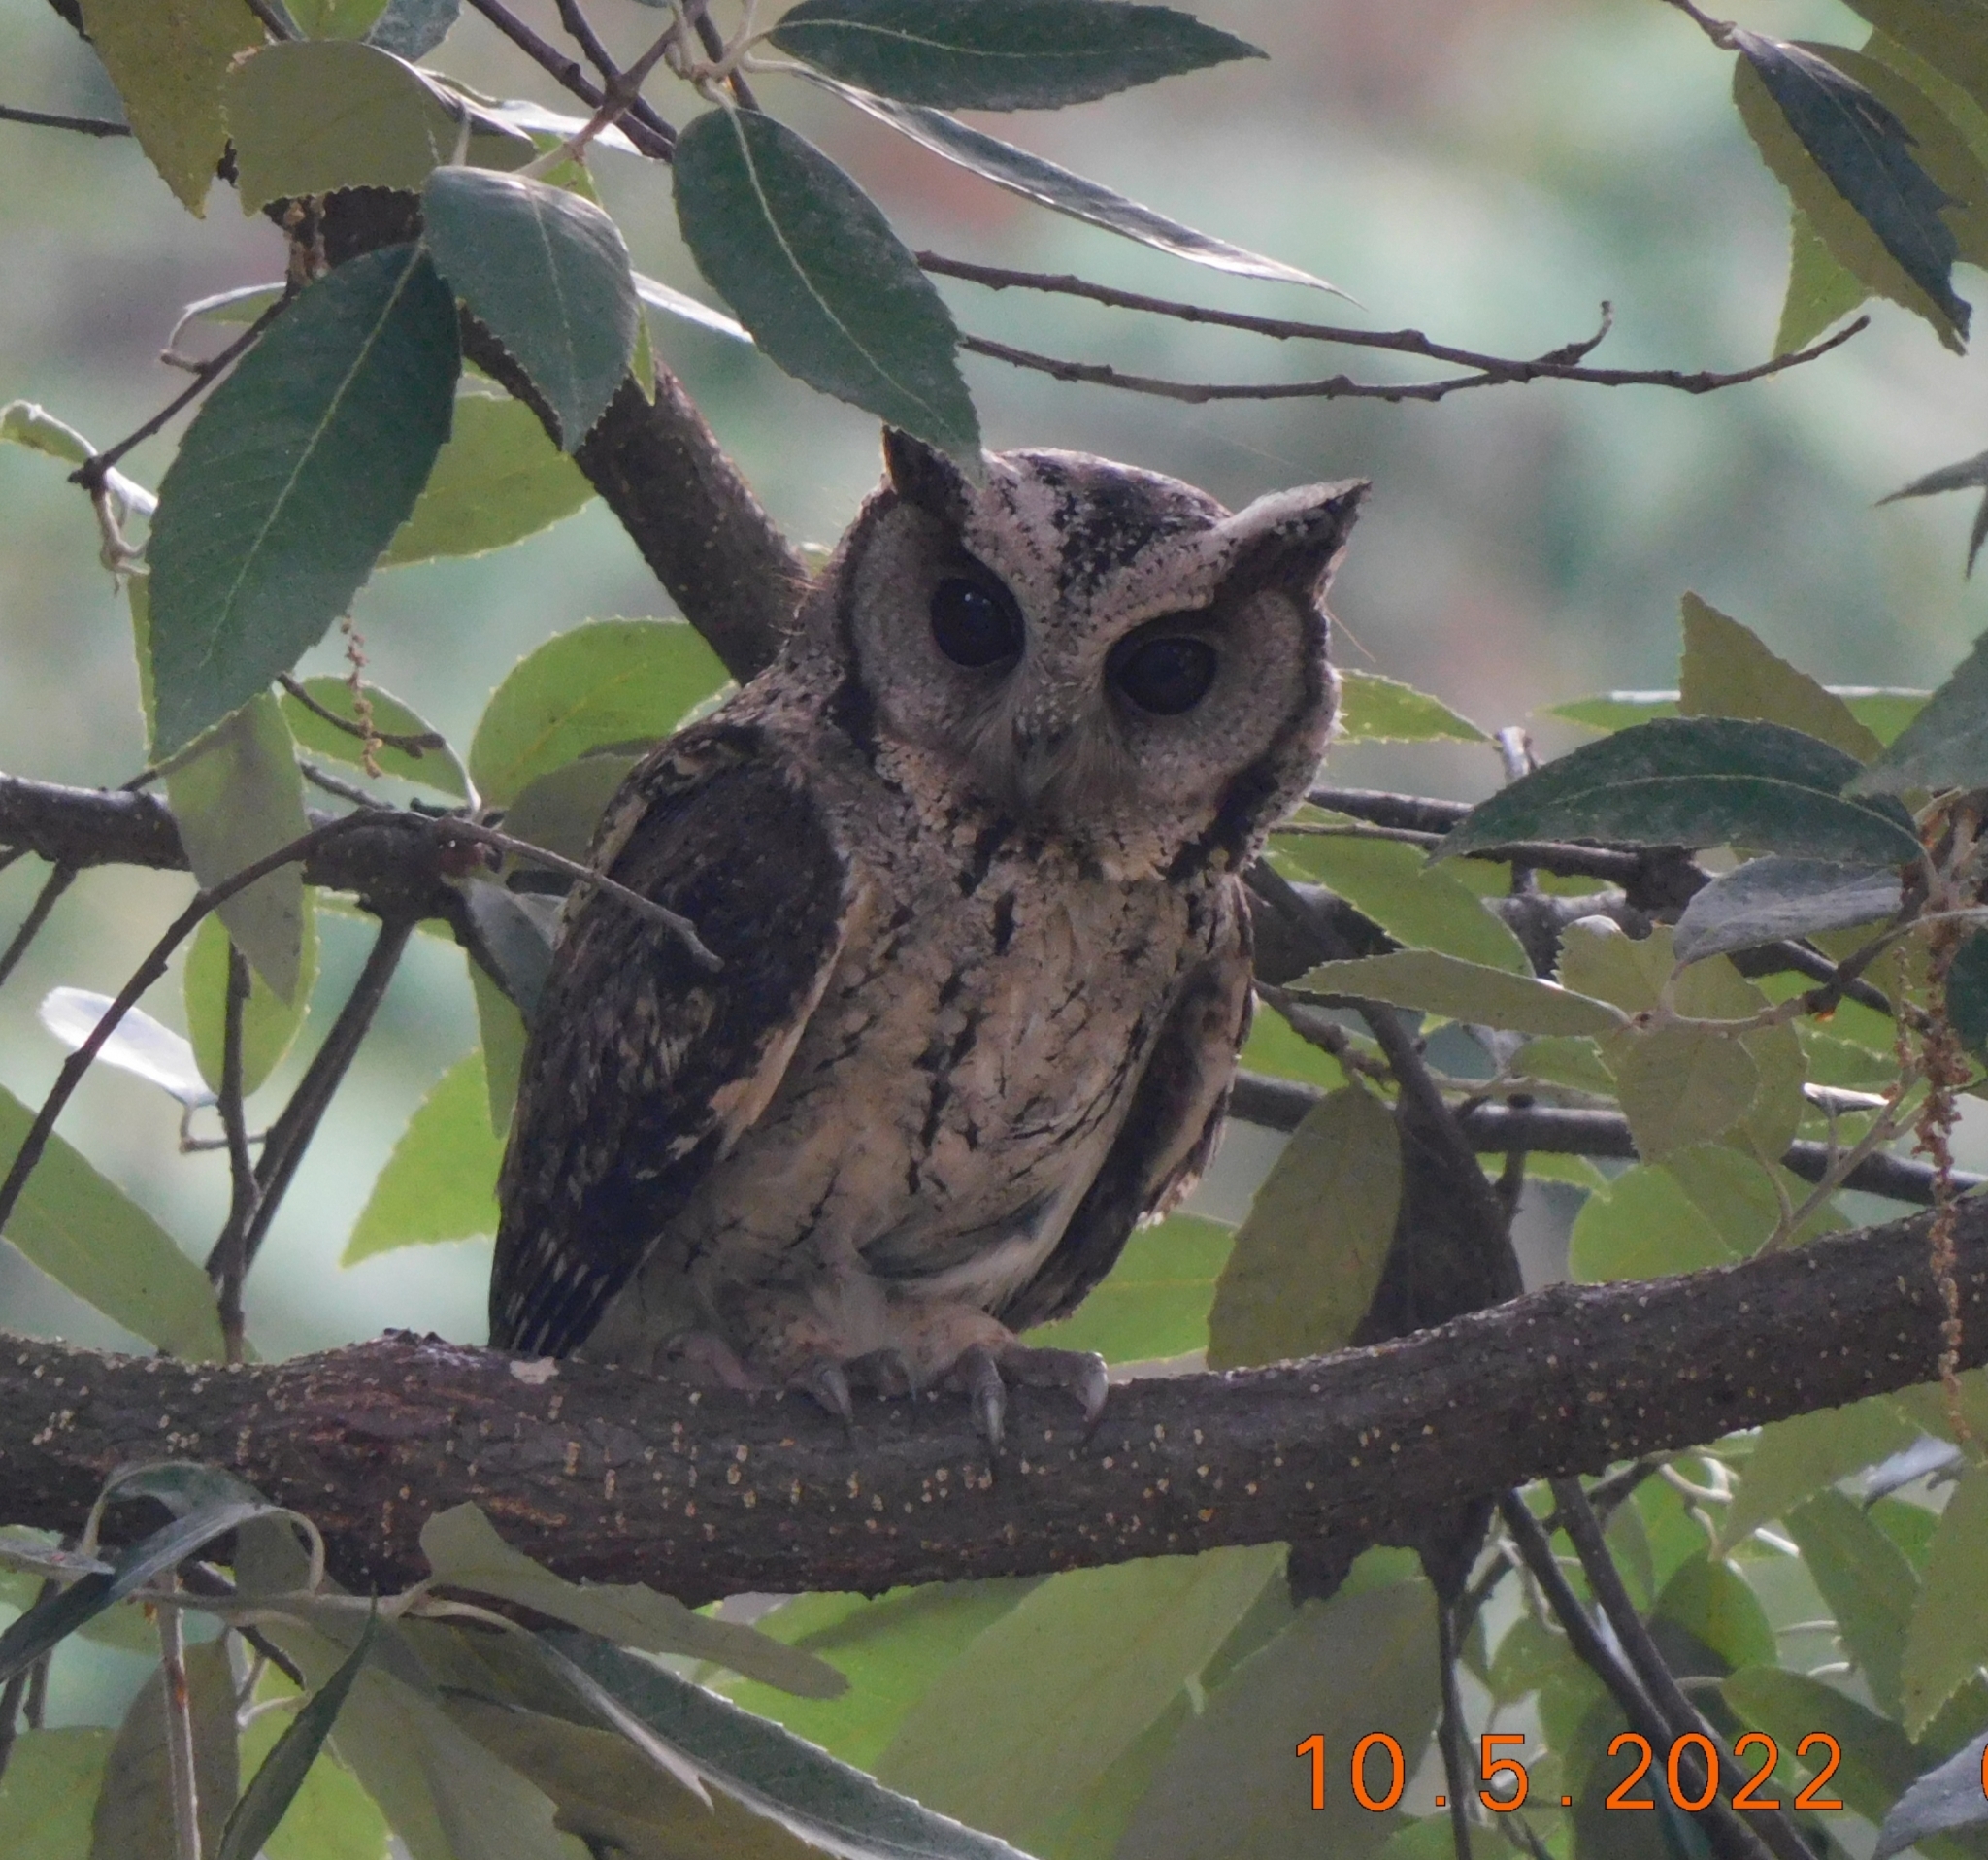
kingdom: Animalia
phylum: Chordata
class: Aves
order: Strigiformes
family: Strigidae
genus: Otus
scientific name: Otus lettia
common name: Collared scops owl
